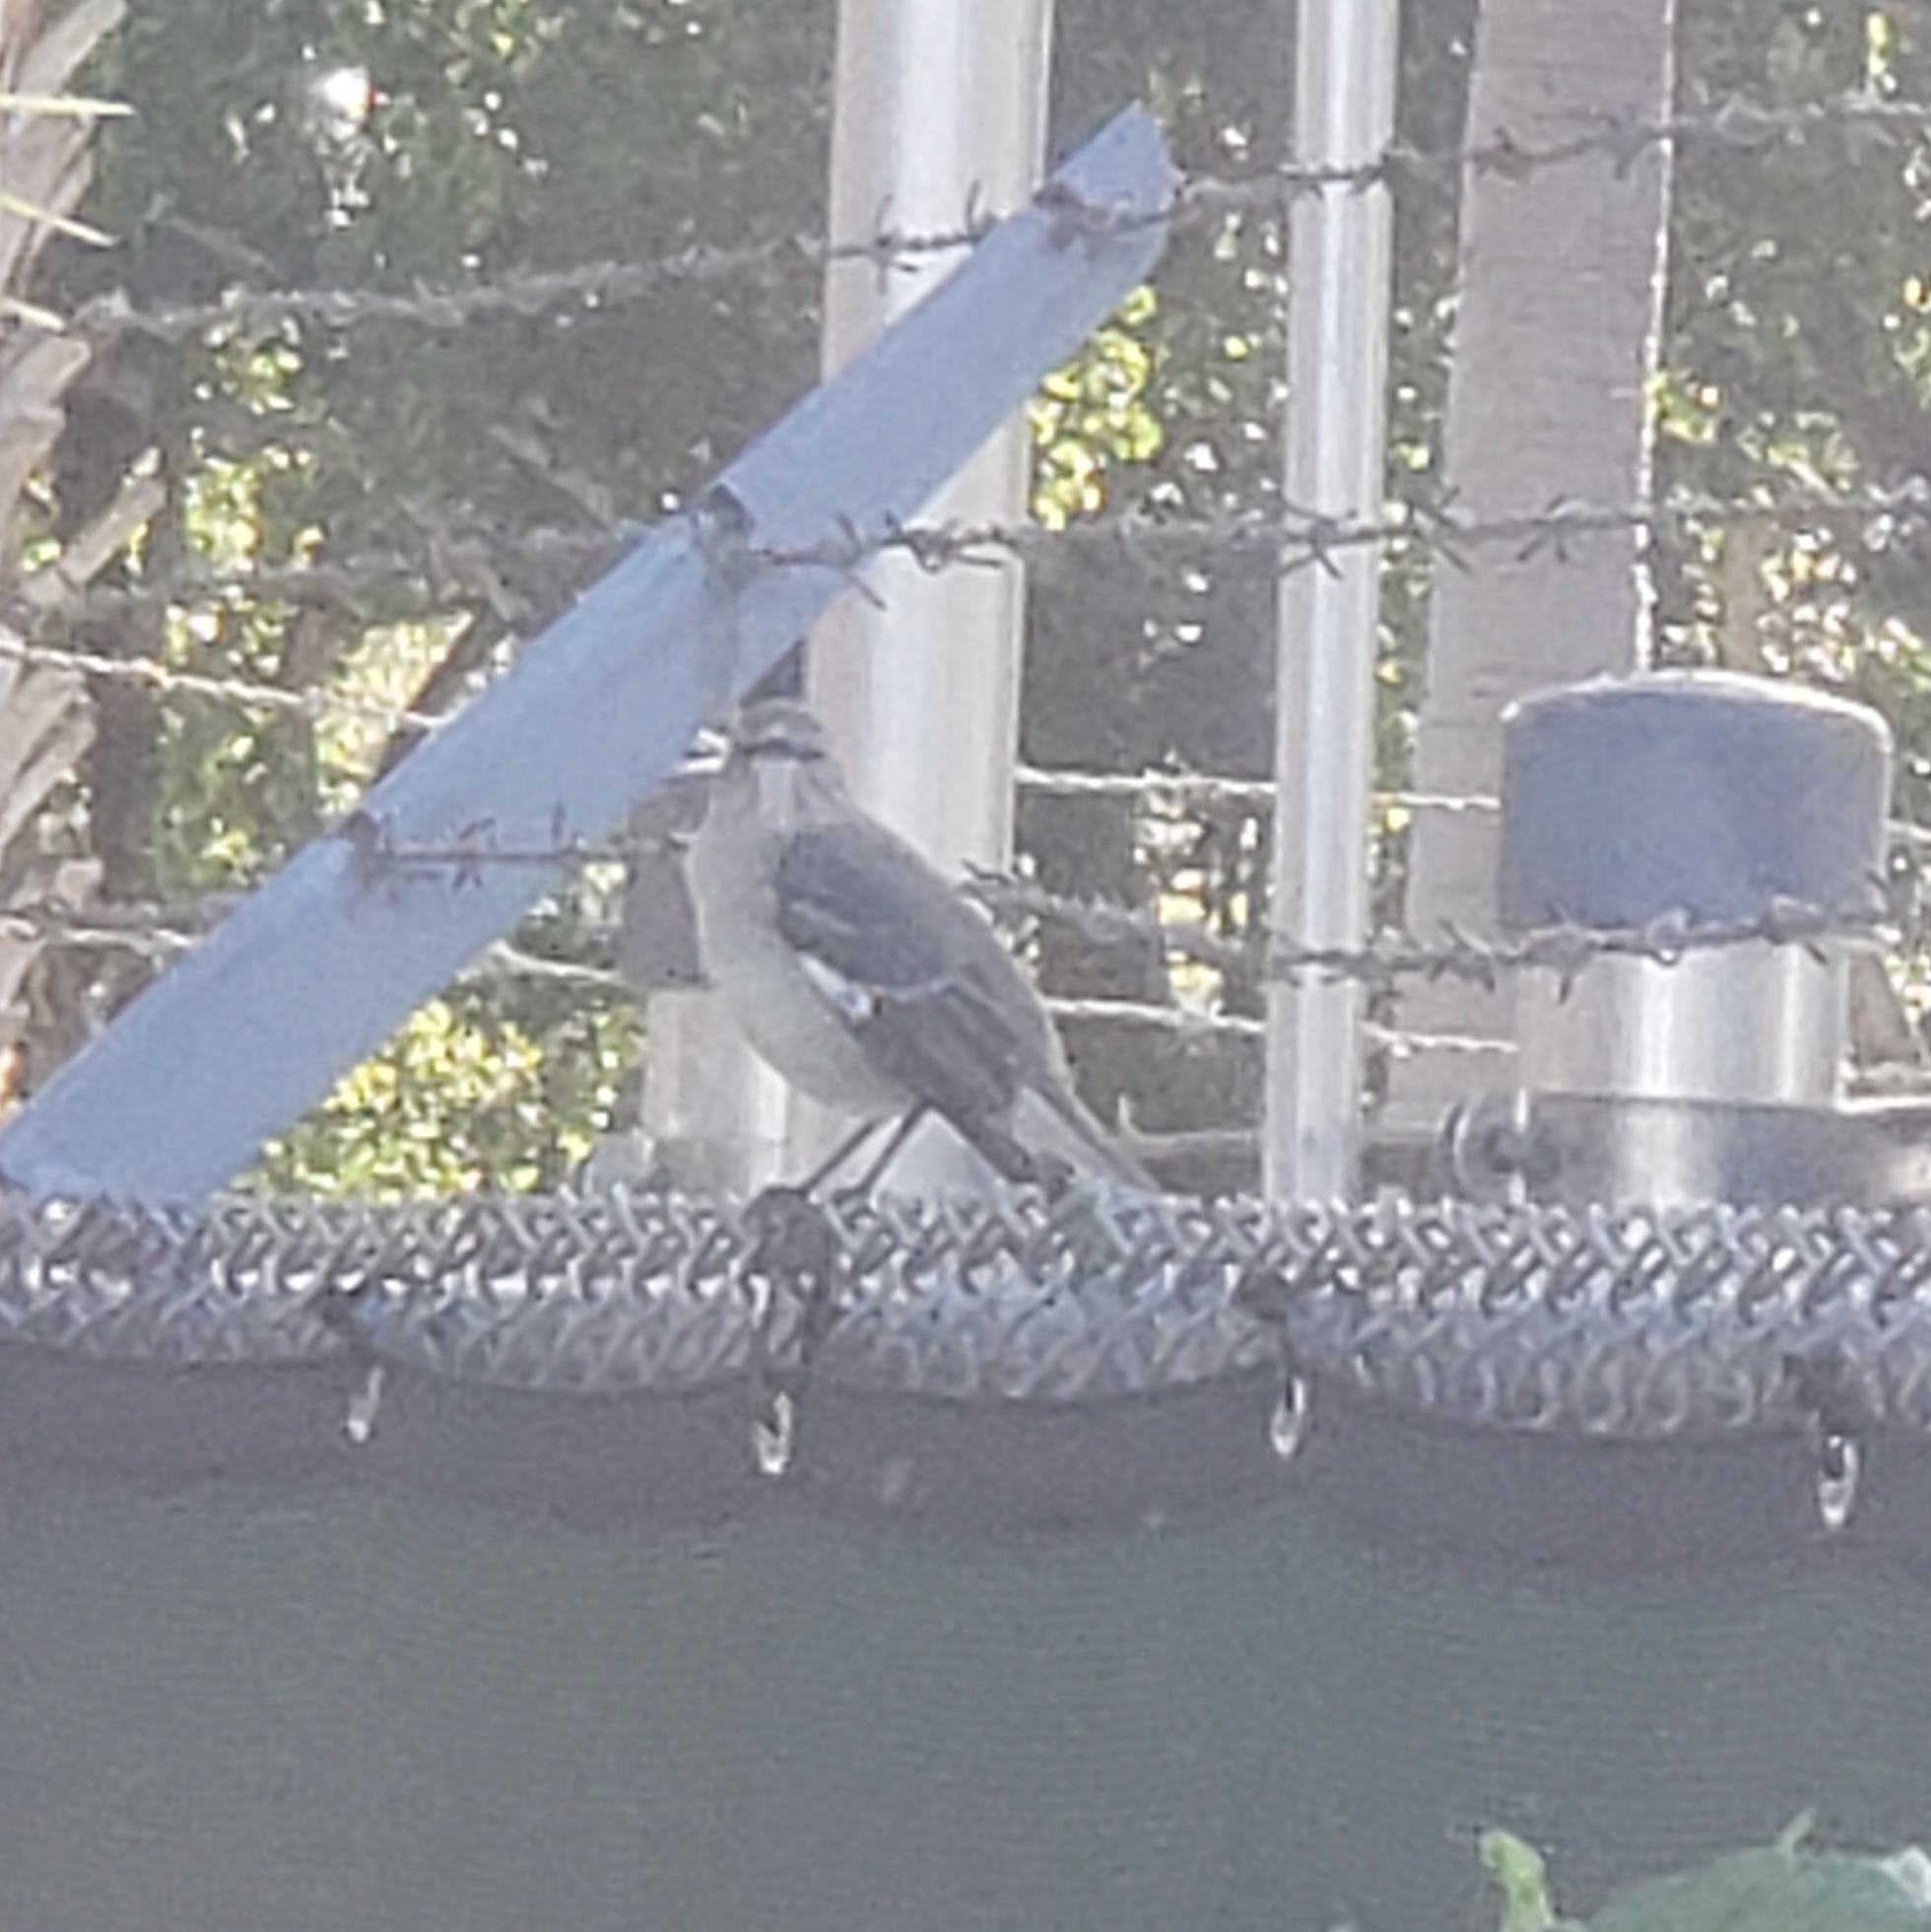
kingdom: Animalia
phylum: Chordata
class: Aves
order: Passeriformes
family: Mimidae
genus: Mimus
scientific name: Mimus polyglottos
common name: Northern mockingbird
